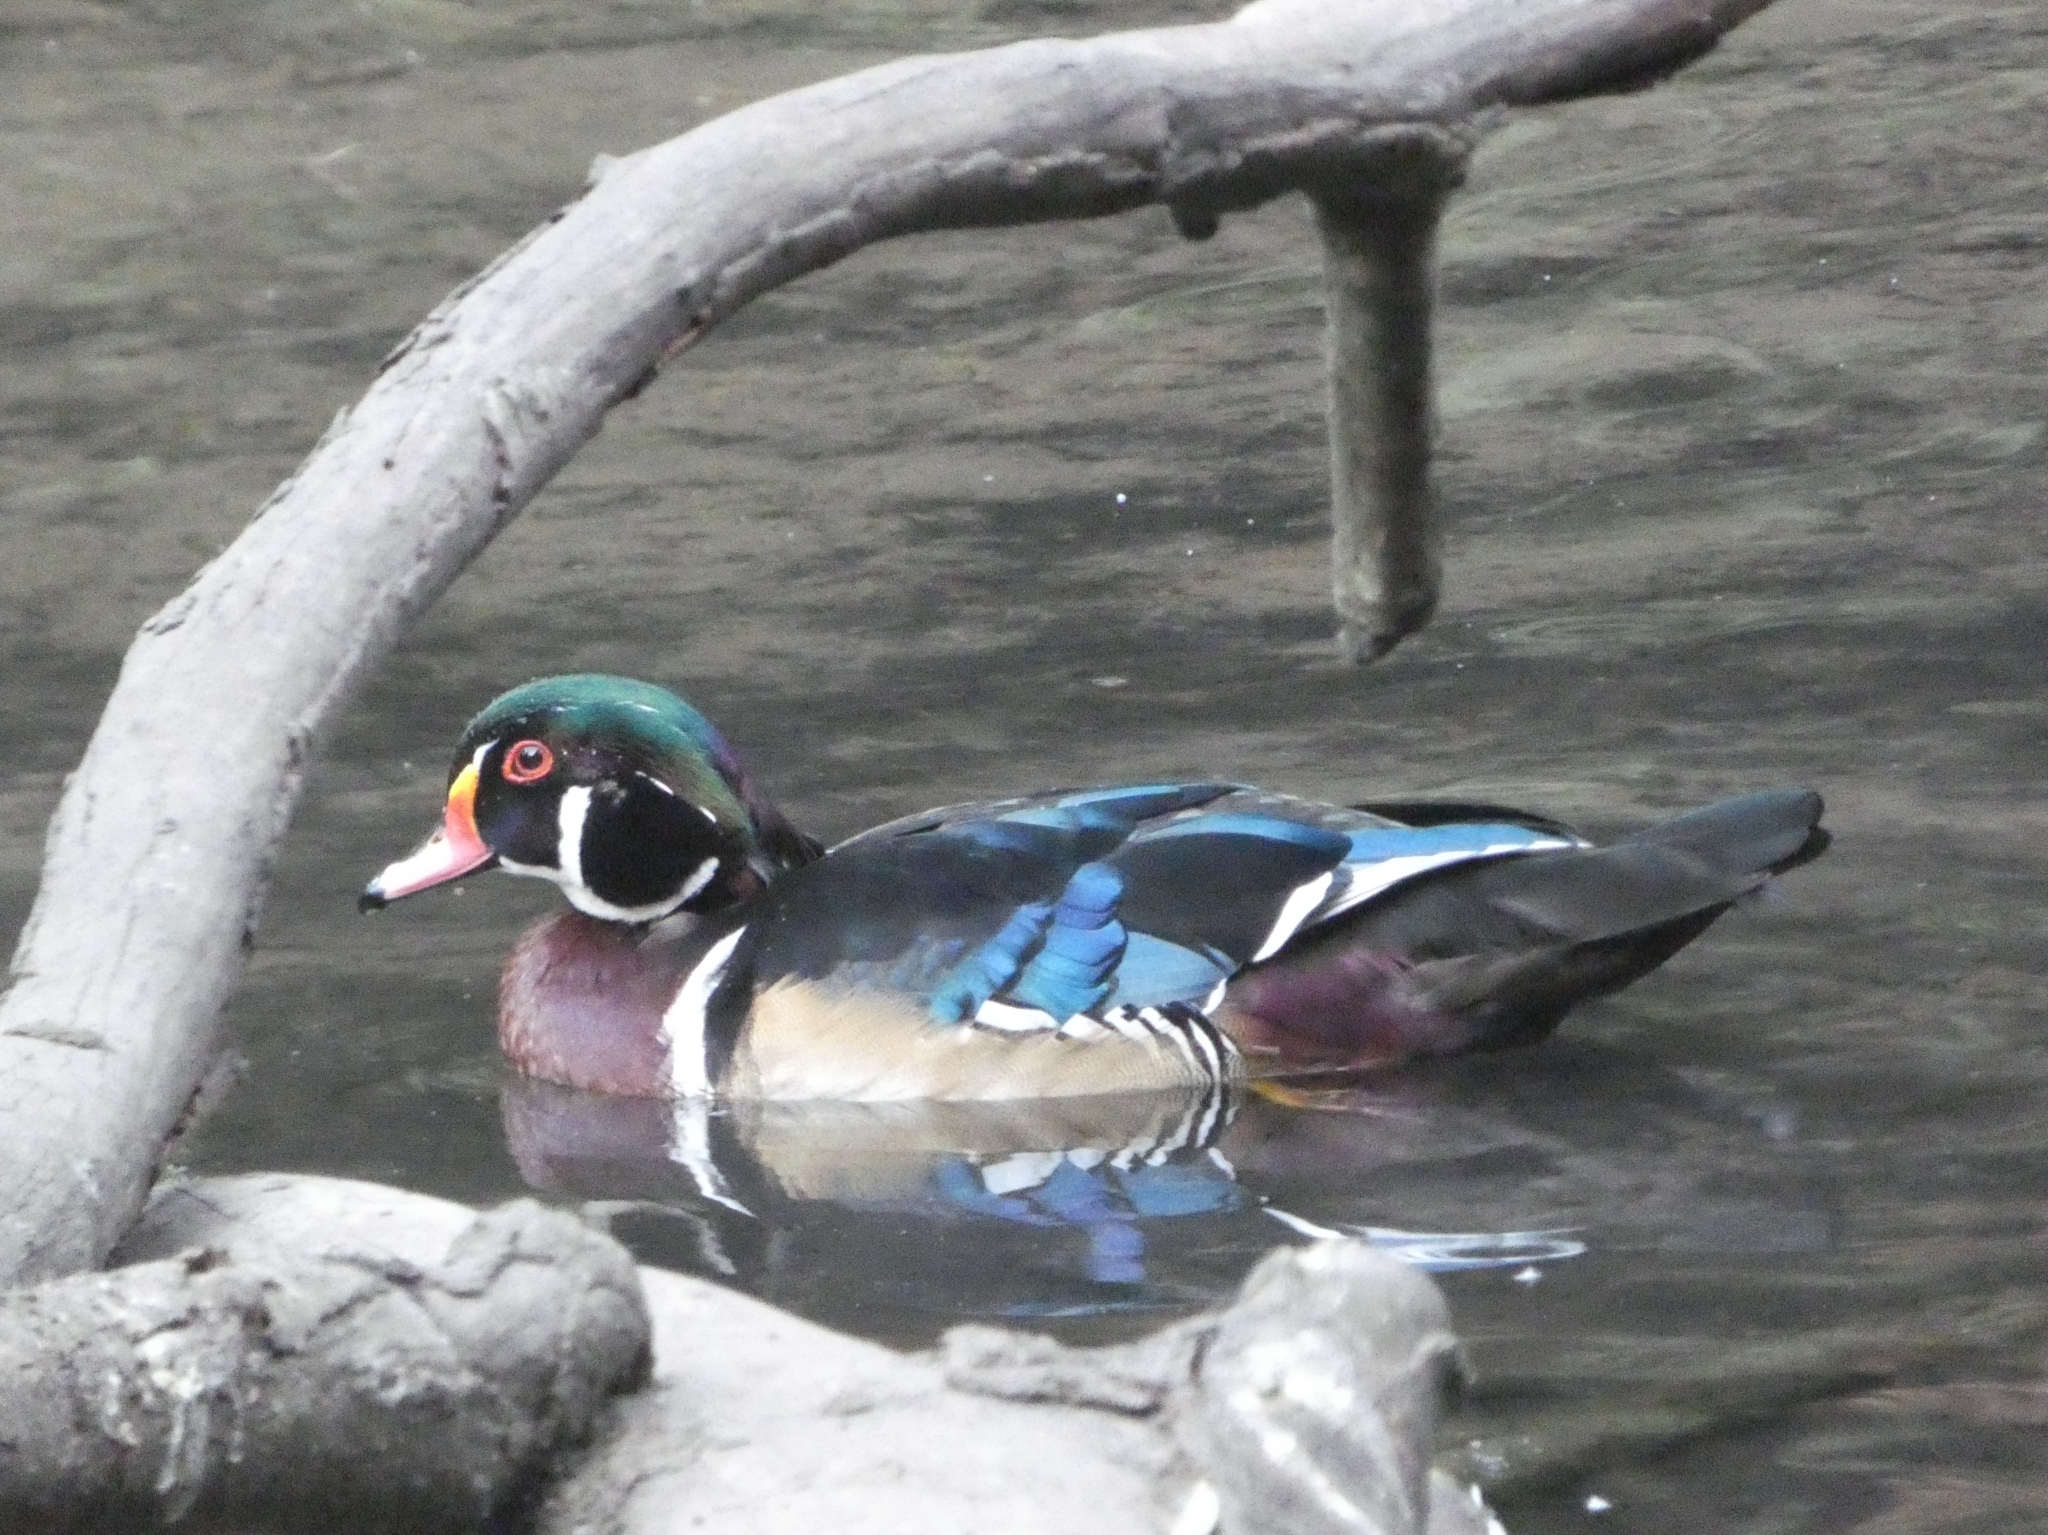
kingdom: Animalia
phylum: Chordata
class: Aves
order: Anseriformes
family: Anatidae
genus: Aix
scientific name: Aix sponsa
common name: Wood duck
